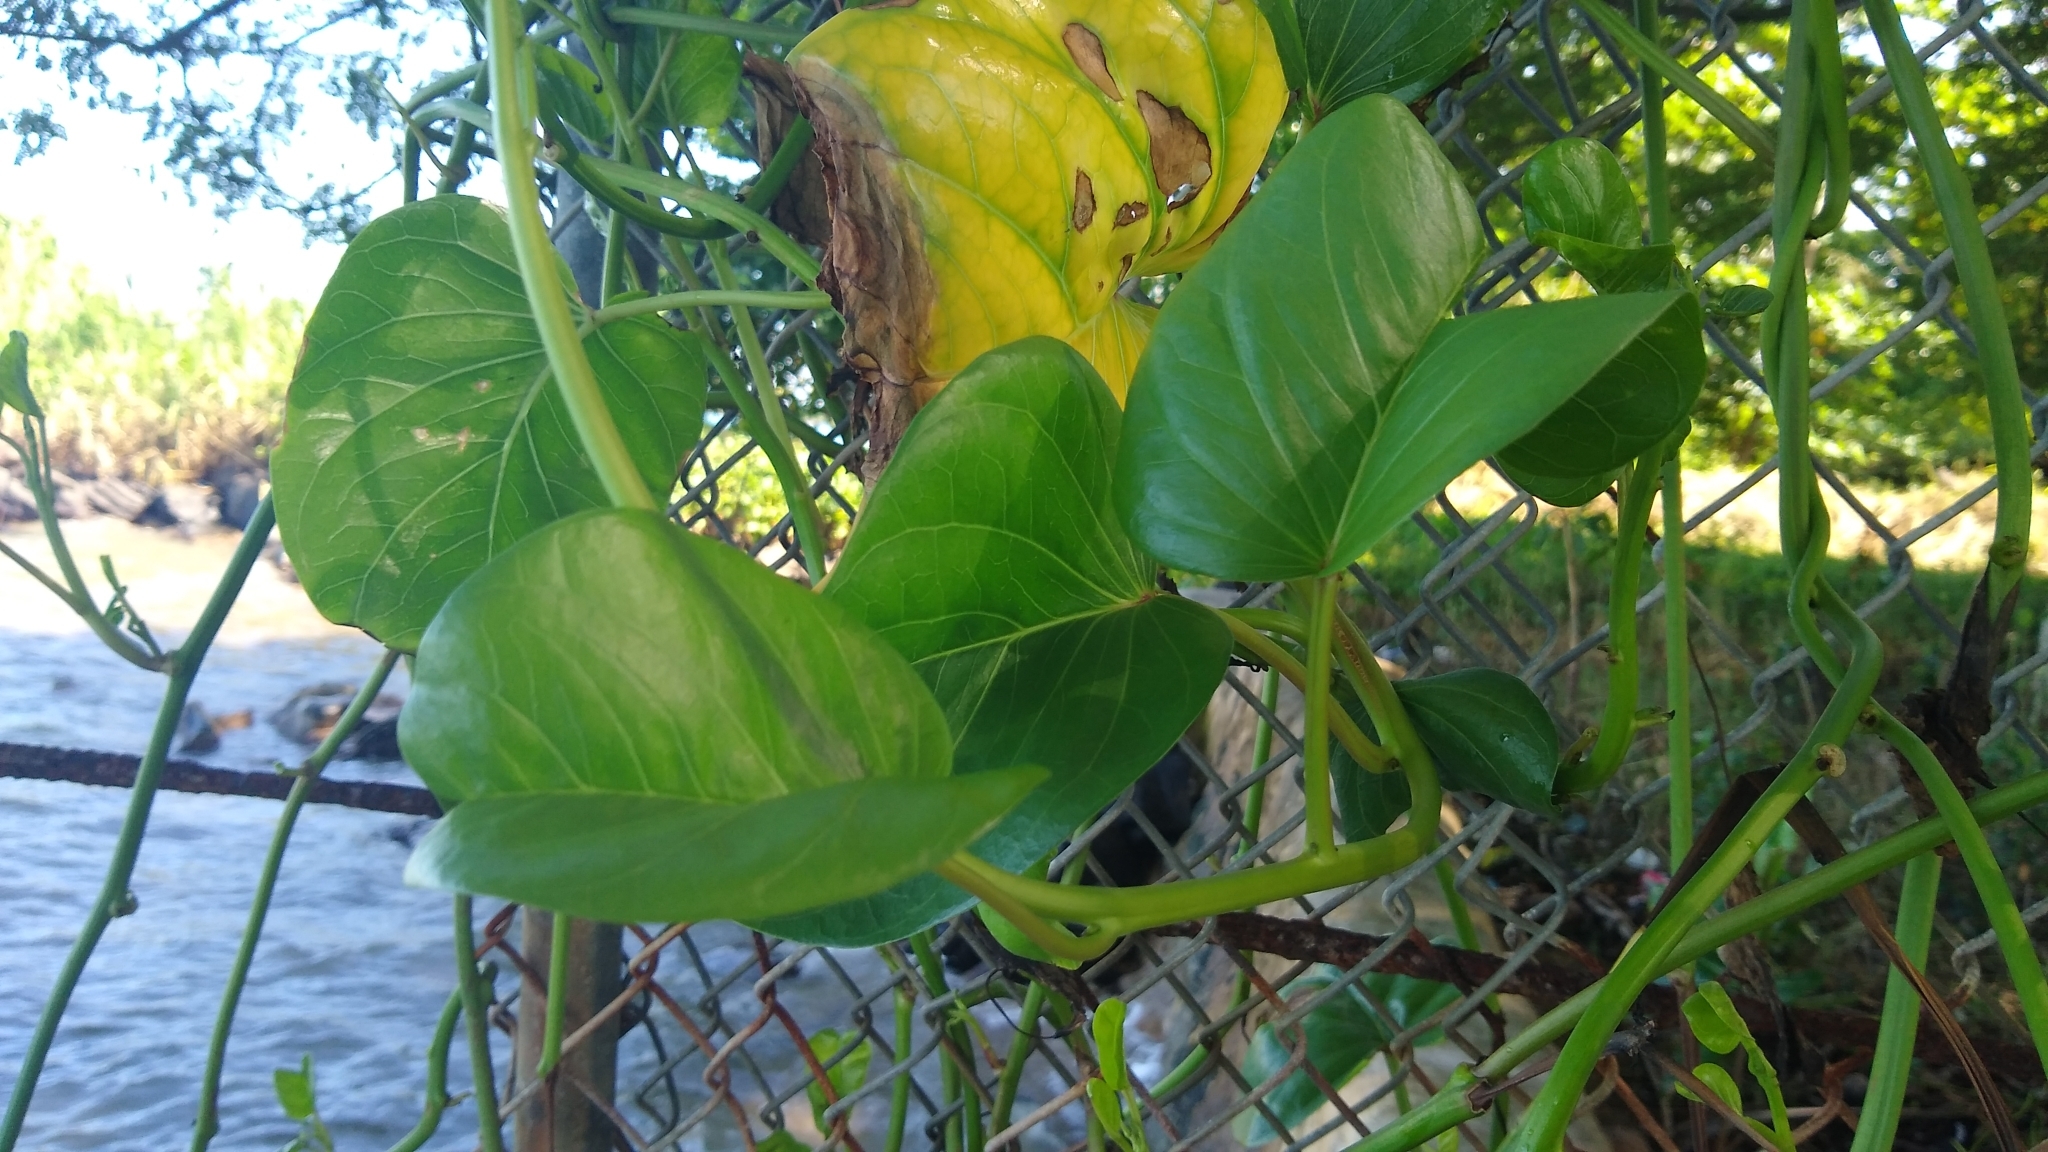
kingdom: Plantae
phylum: Tracheophyta
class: Magnoliopsida
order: Solanales
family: Convolvulaceae
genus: Ipomoea
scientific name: Ipomoea pes-caprae
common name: Beach morning glory
